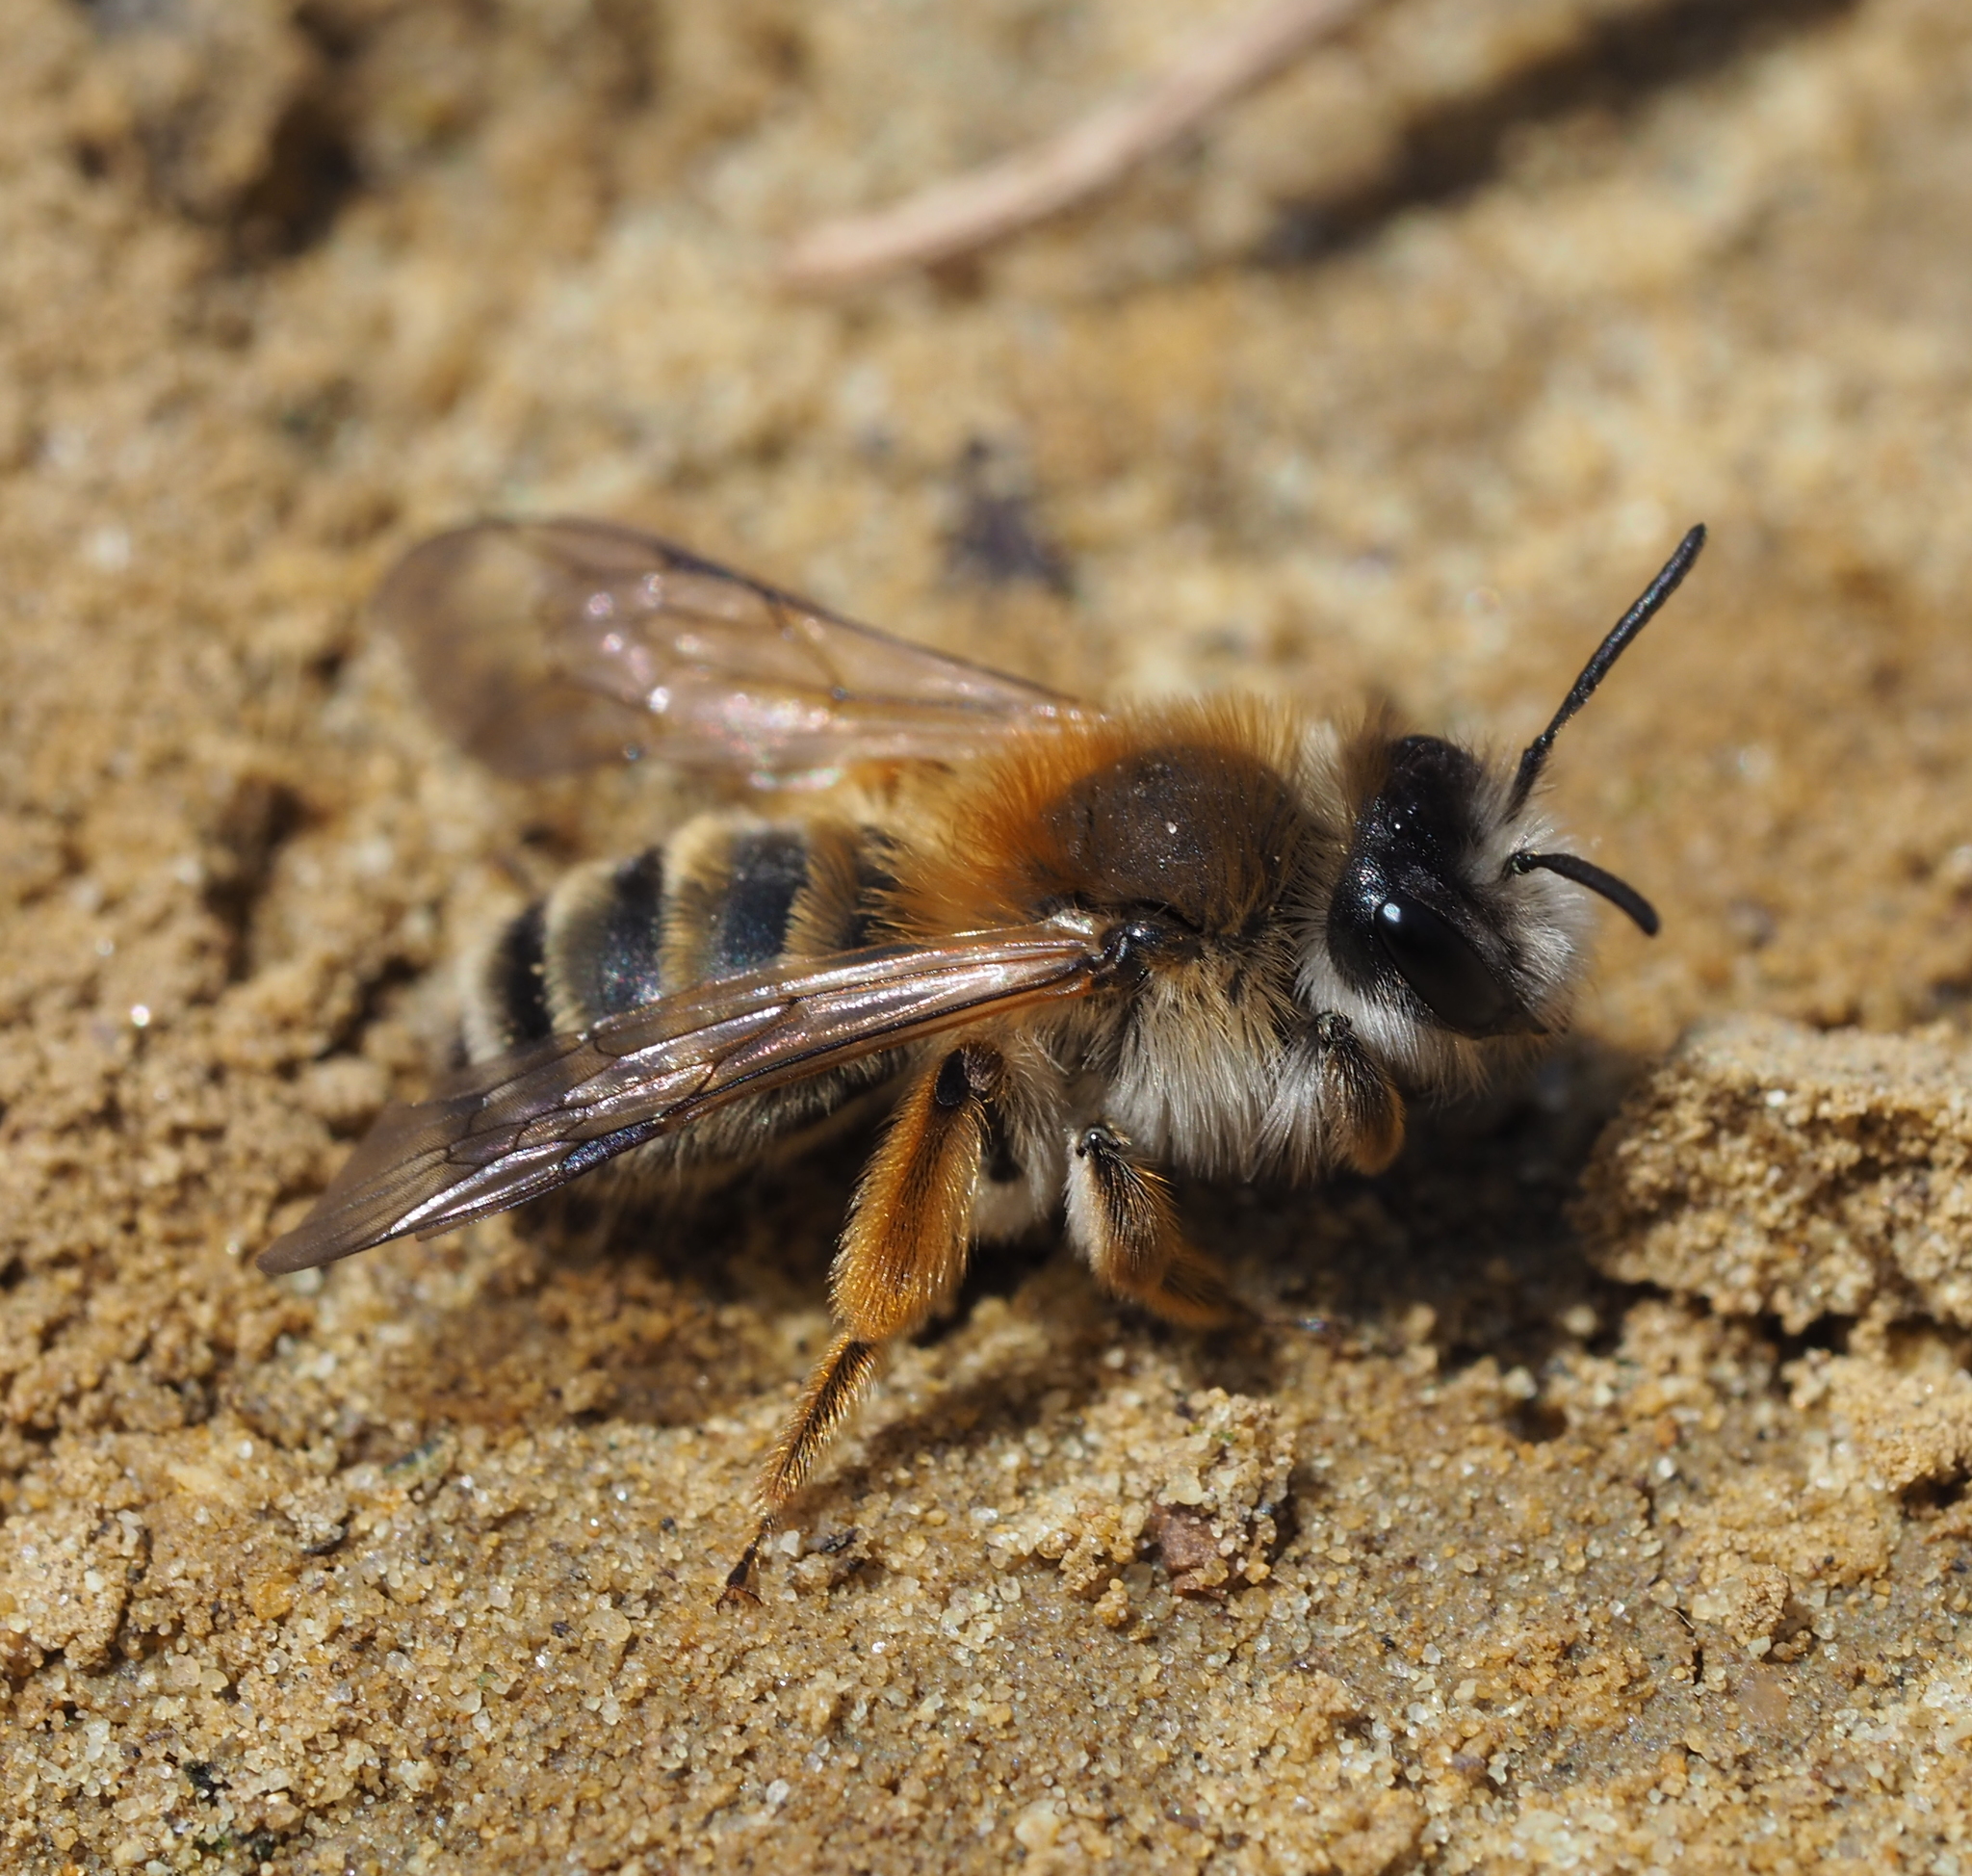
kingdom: Animalia
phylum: Arthropoda
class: Insecta
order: Hymenoptera
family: Andrenidae
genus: Andrena
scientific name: Andrena gravida
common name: White-bellied mining bee
